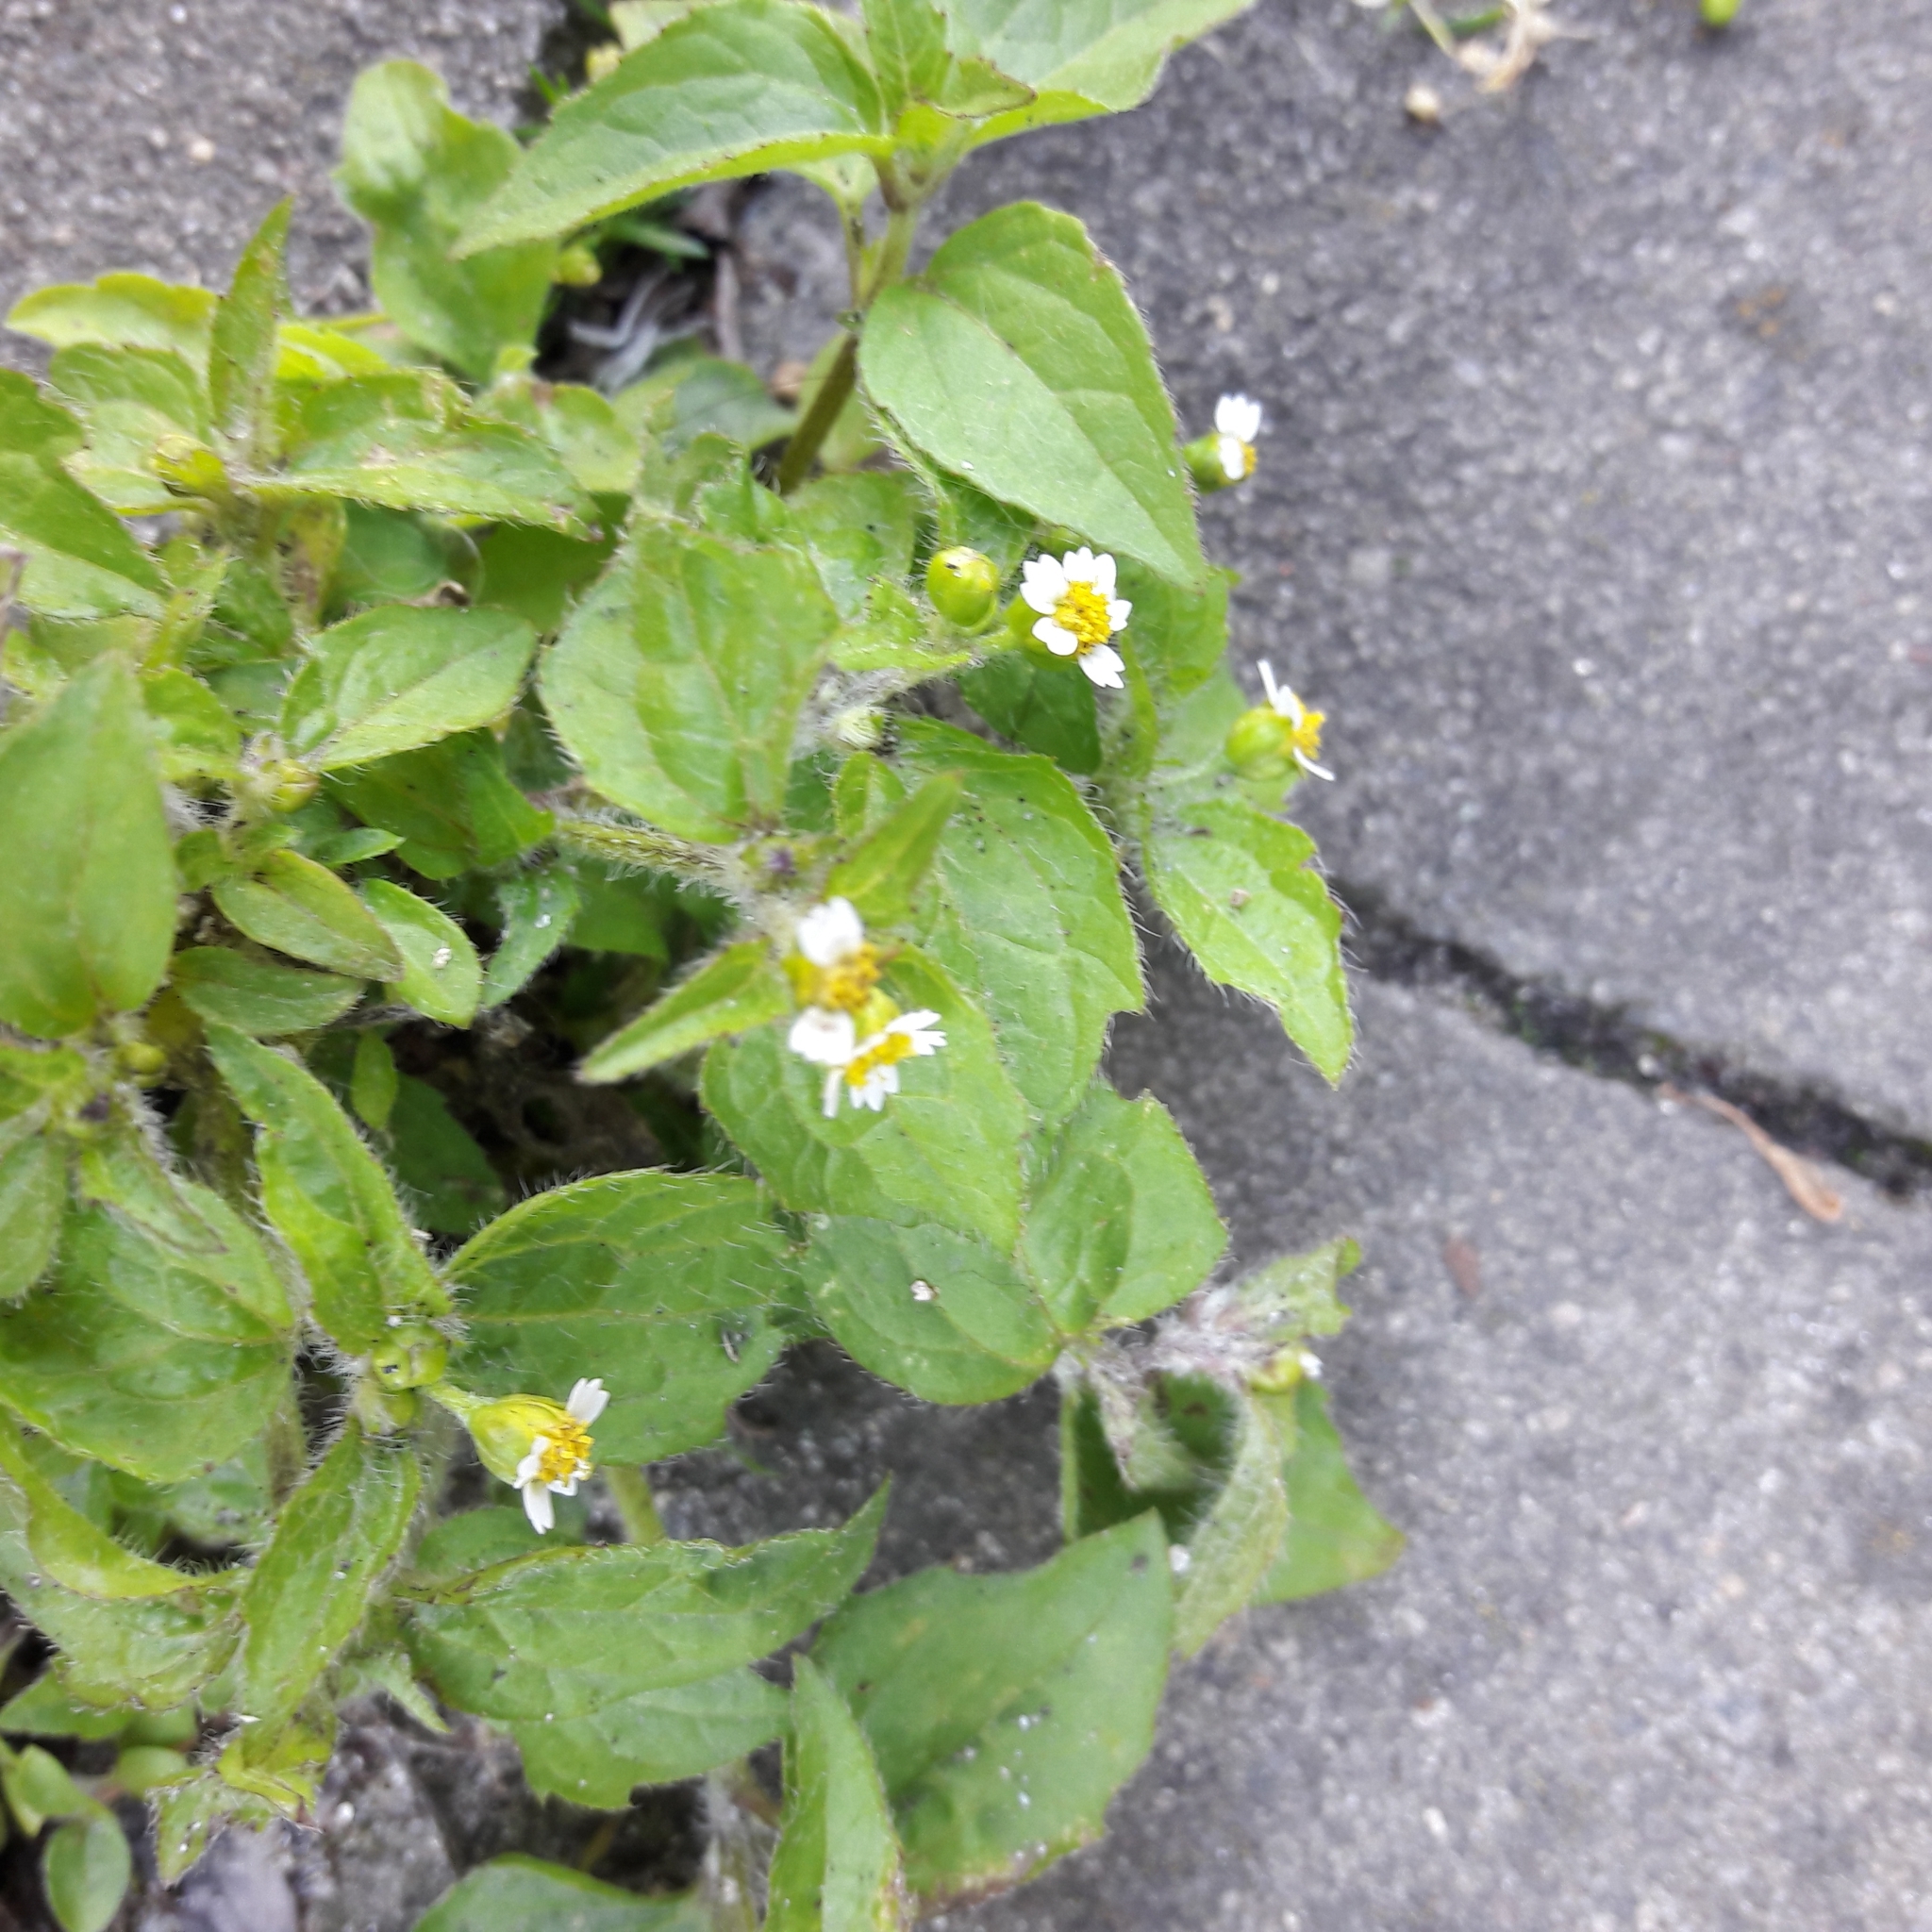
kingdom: Plantae
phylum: Tracheophyta
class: Magnoliopsida
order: Asterales
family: Asteraceae
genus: Galinsoga
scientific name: Galinsoga quadriradiata
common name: Shaggy soldier
